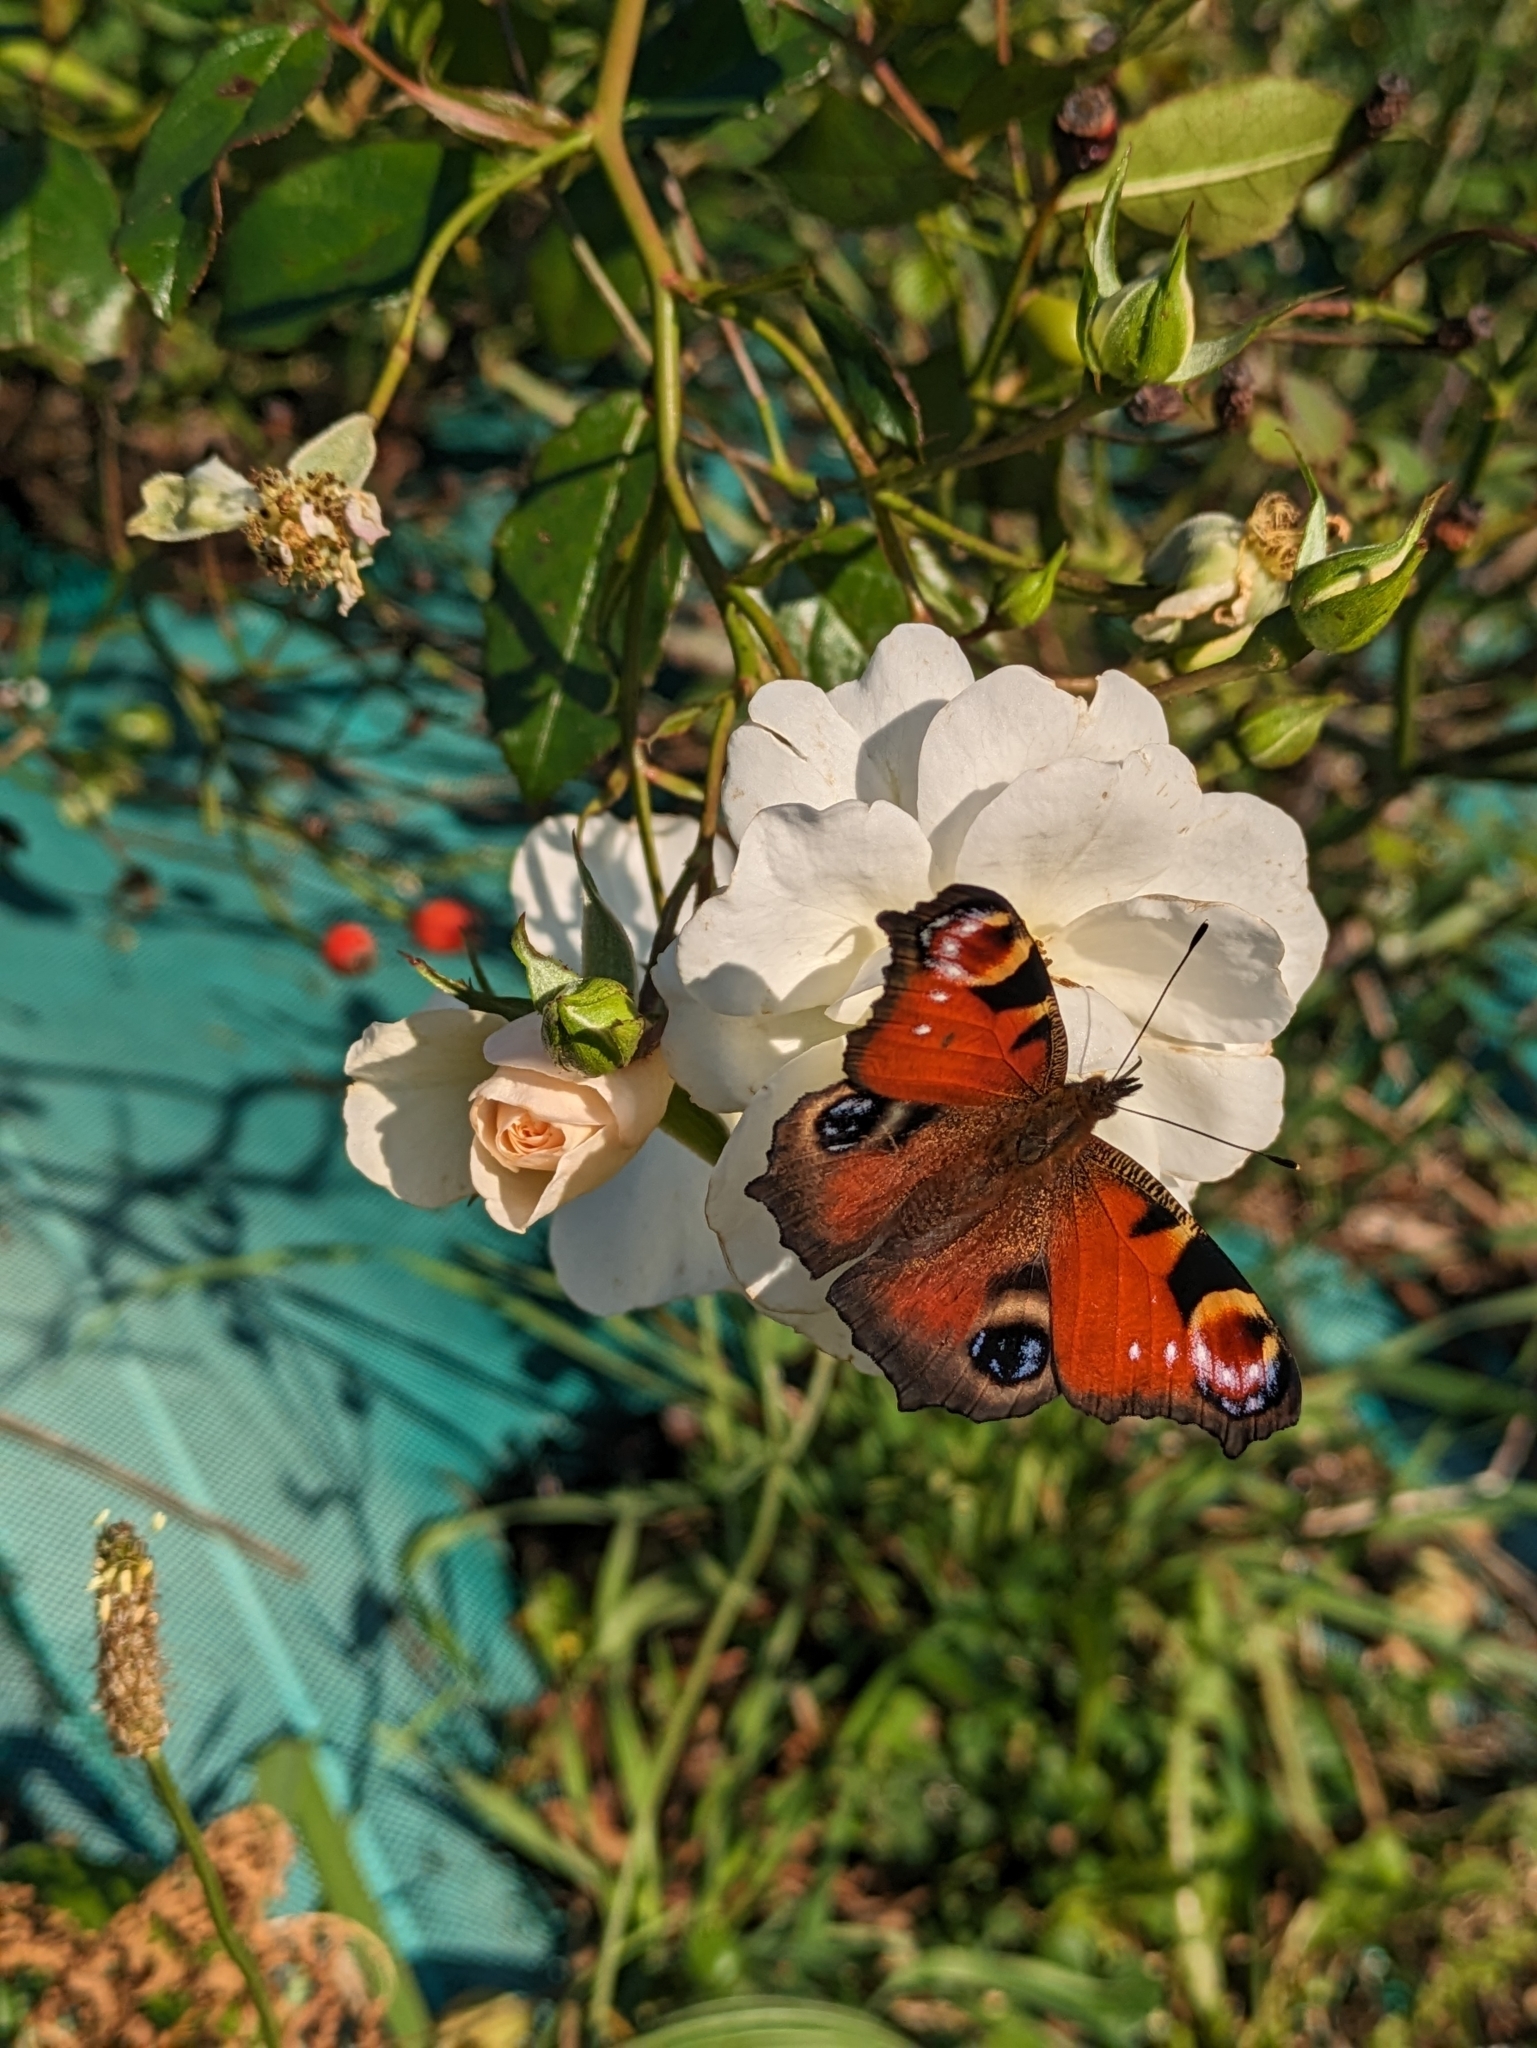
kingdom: Animalia
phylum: Arthropoda
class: Insecta
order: Lepidoptera
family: Nymphalidae
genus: Aglais
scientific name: Aglais io
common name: Peacock
